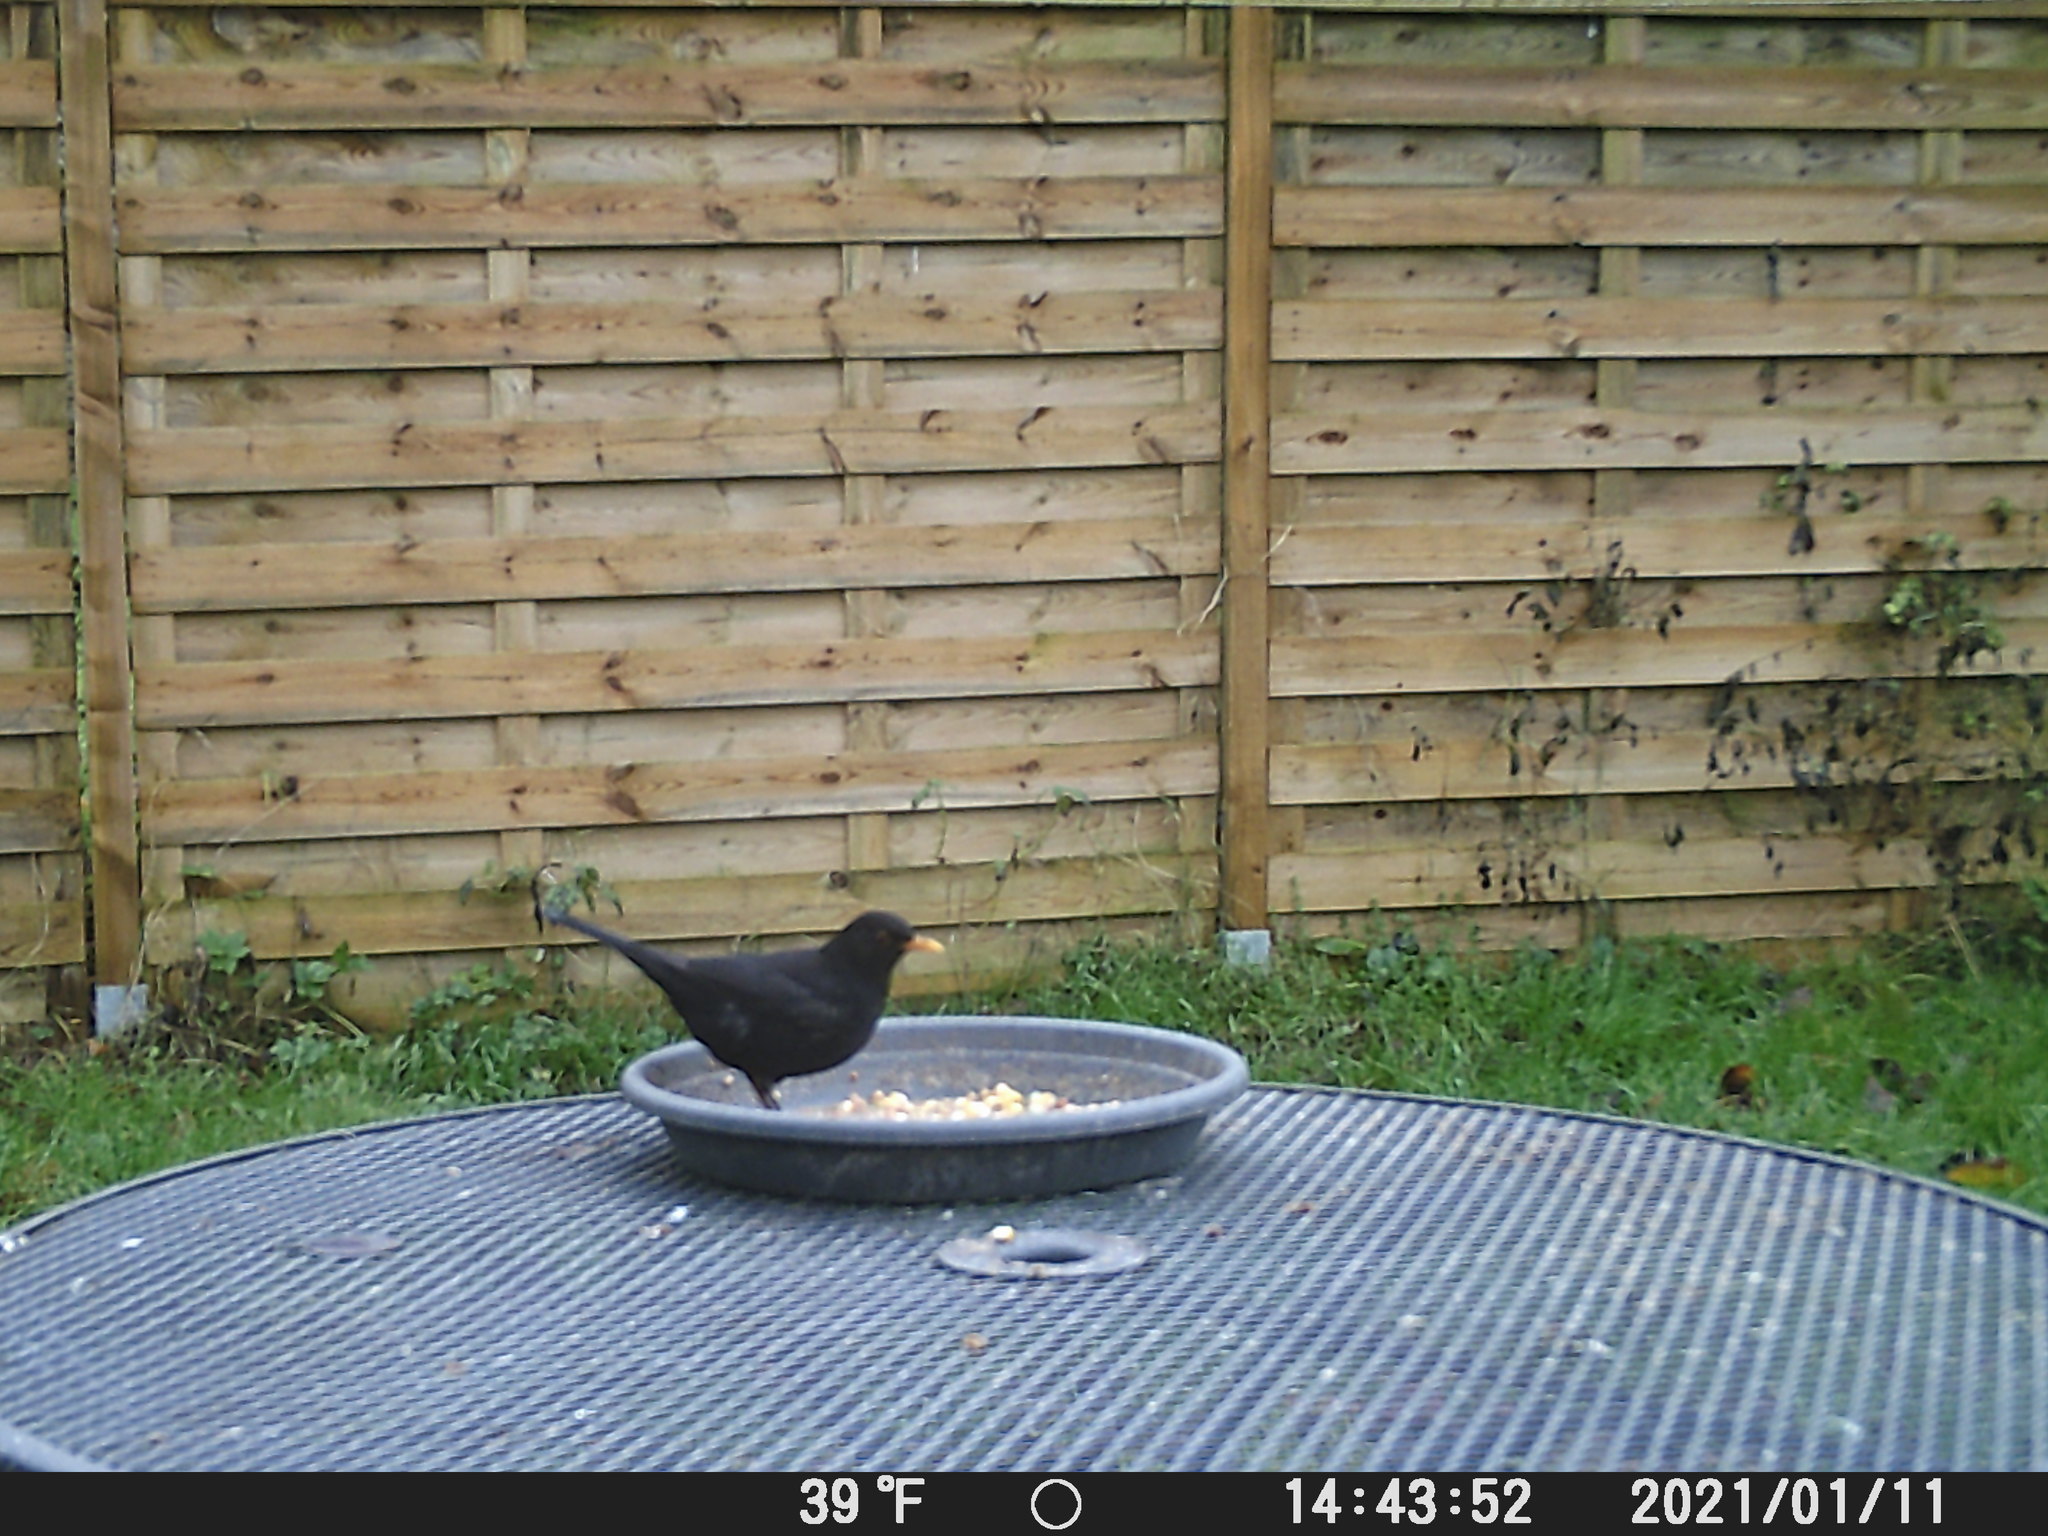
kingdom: Animalia
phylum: Chordata
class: Aves
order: Passeriformes
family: Turdidae
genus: Turdus
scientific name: Turdus merula
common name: Common blackbird
